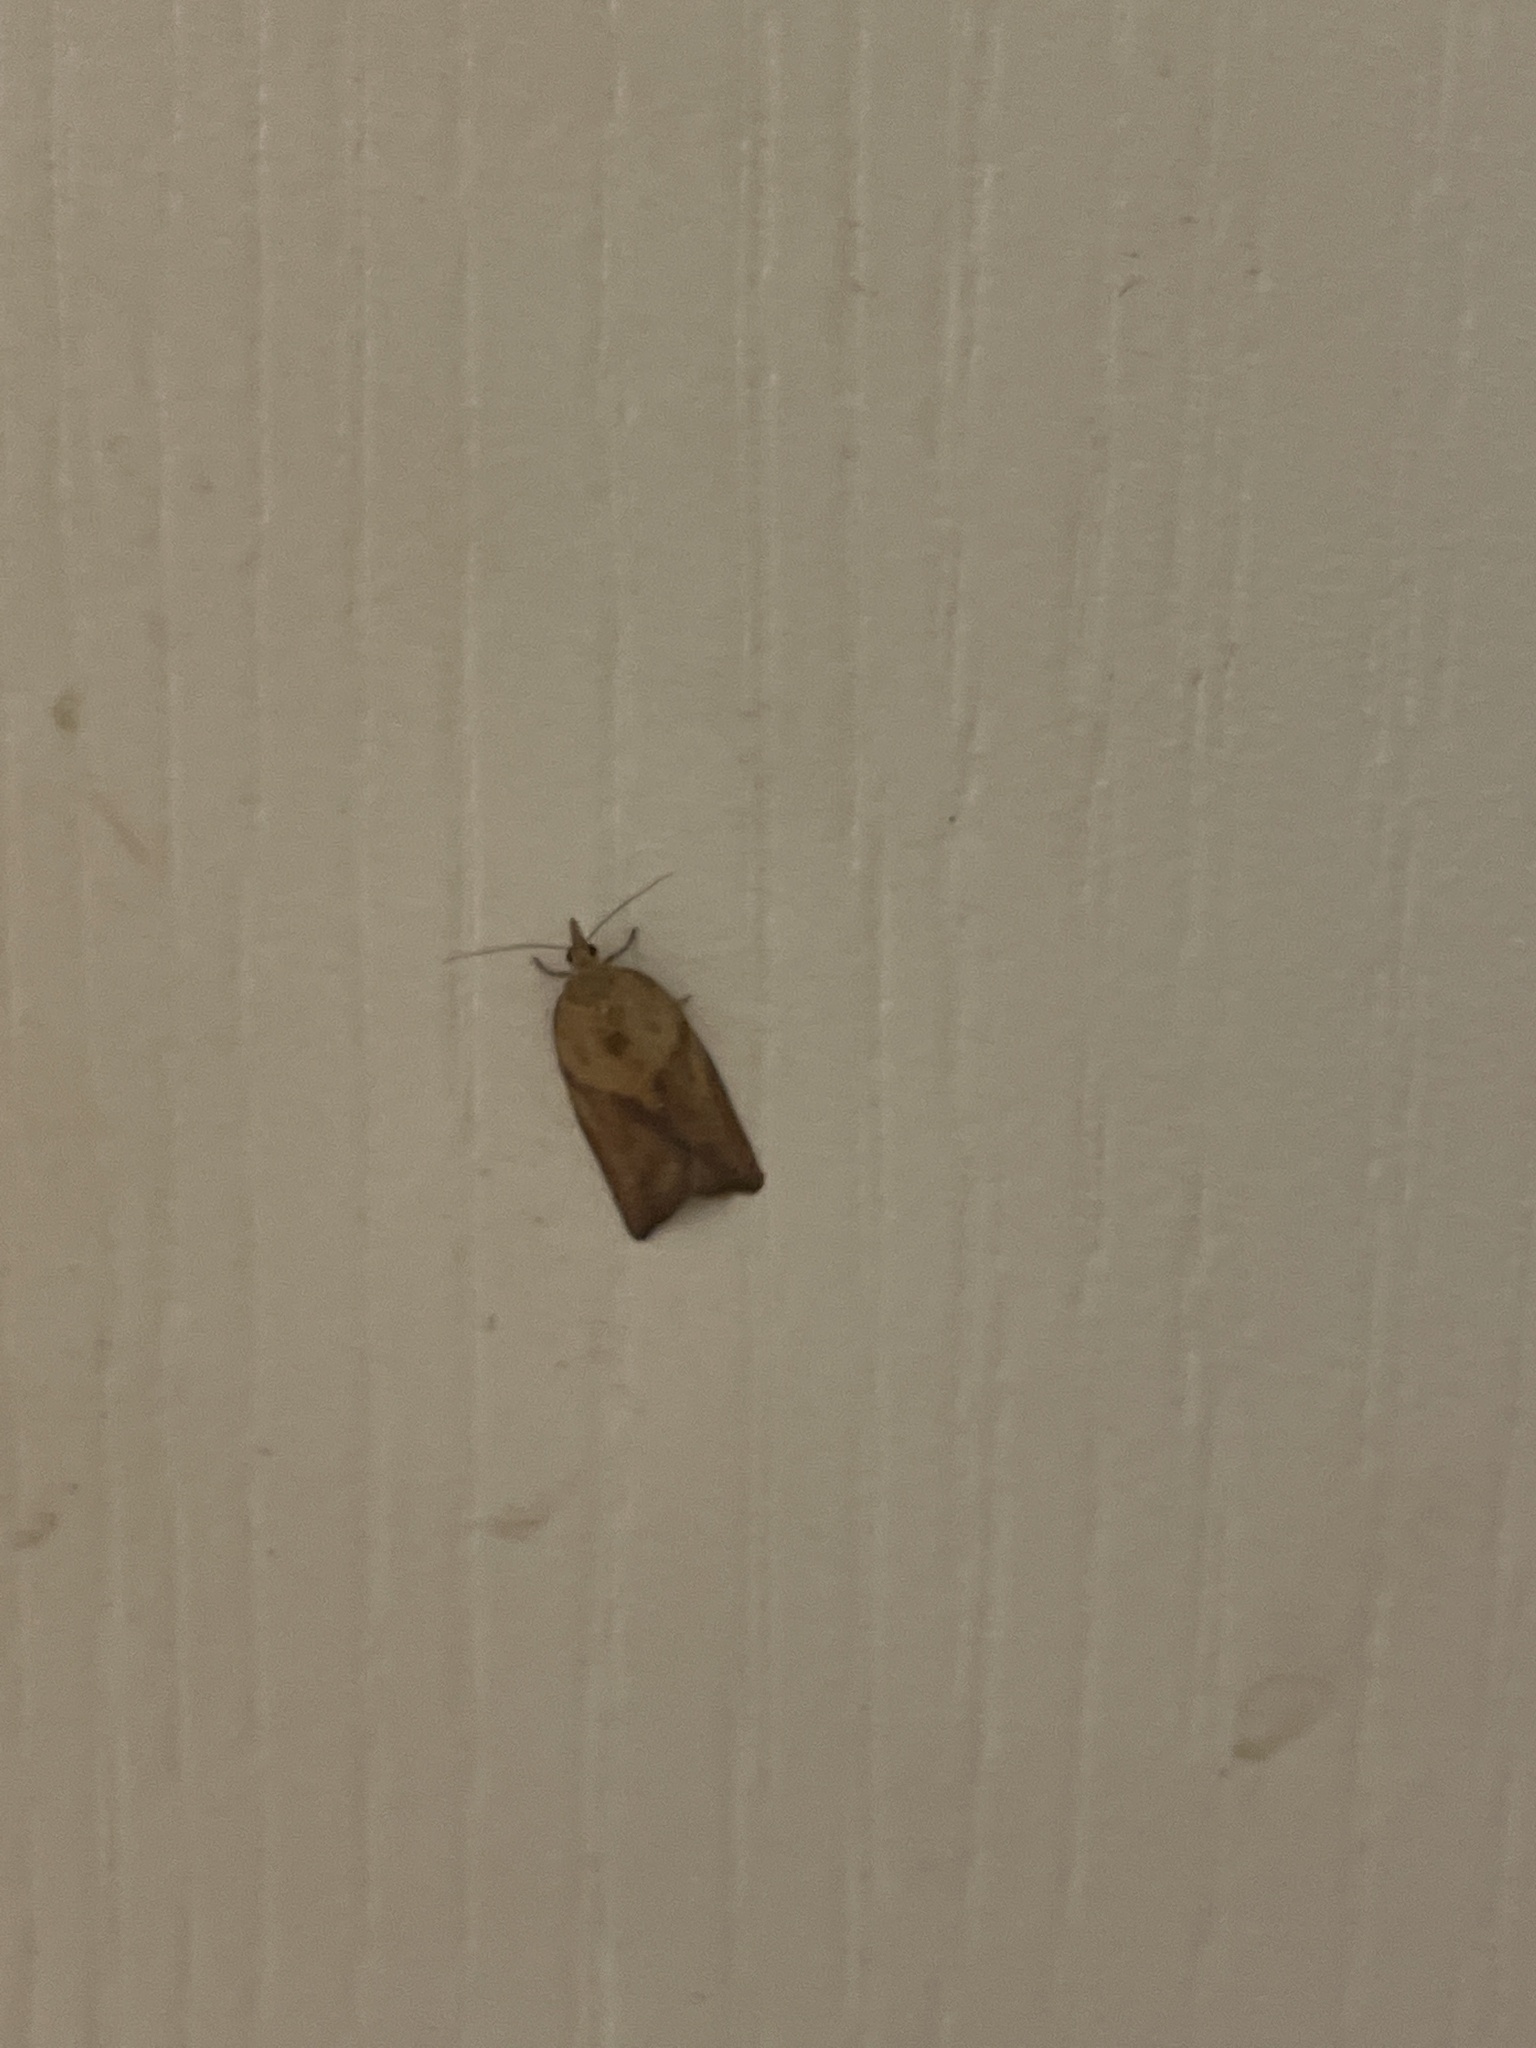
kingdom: Animalia
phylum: Arthropoda
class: Insecta
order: Lepidoptera
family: Tortricidae
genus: Epiphyas
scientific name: Epiphyas postvittana
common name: Light brown apple moth
